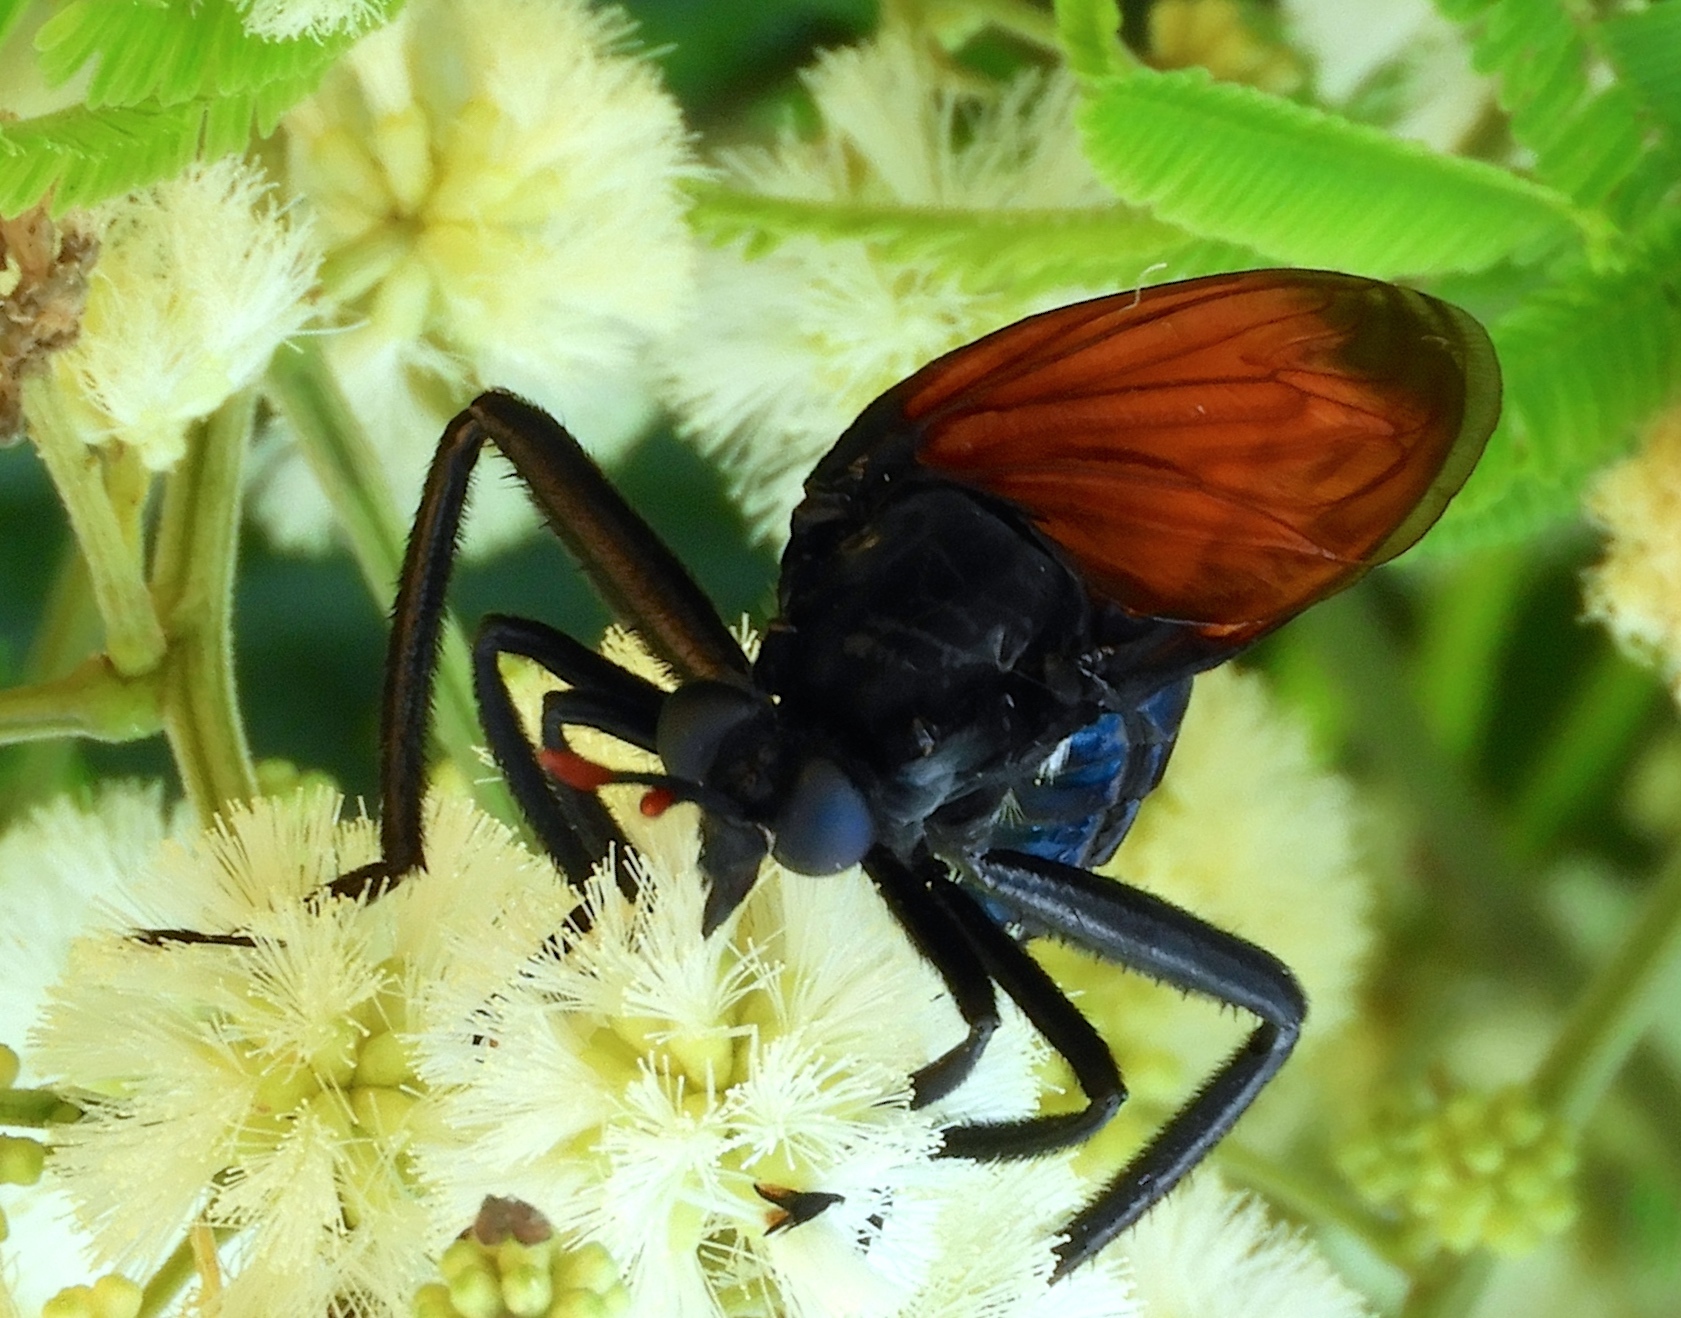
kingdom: Animalia
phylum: Arthropoda
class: Insecta
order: Diptera
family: Mydidae
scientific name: Mydidae
